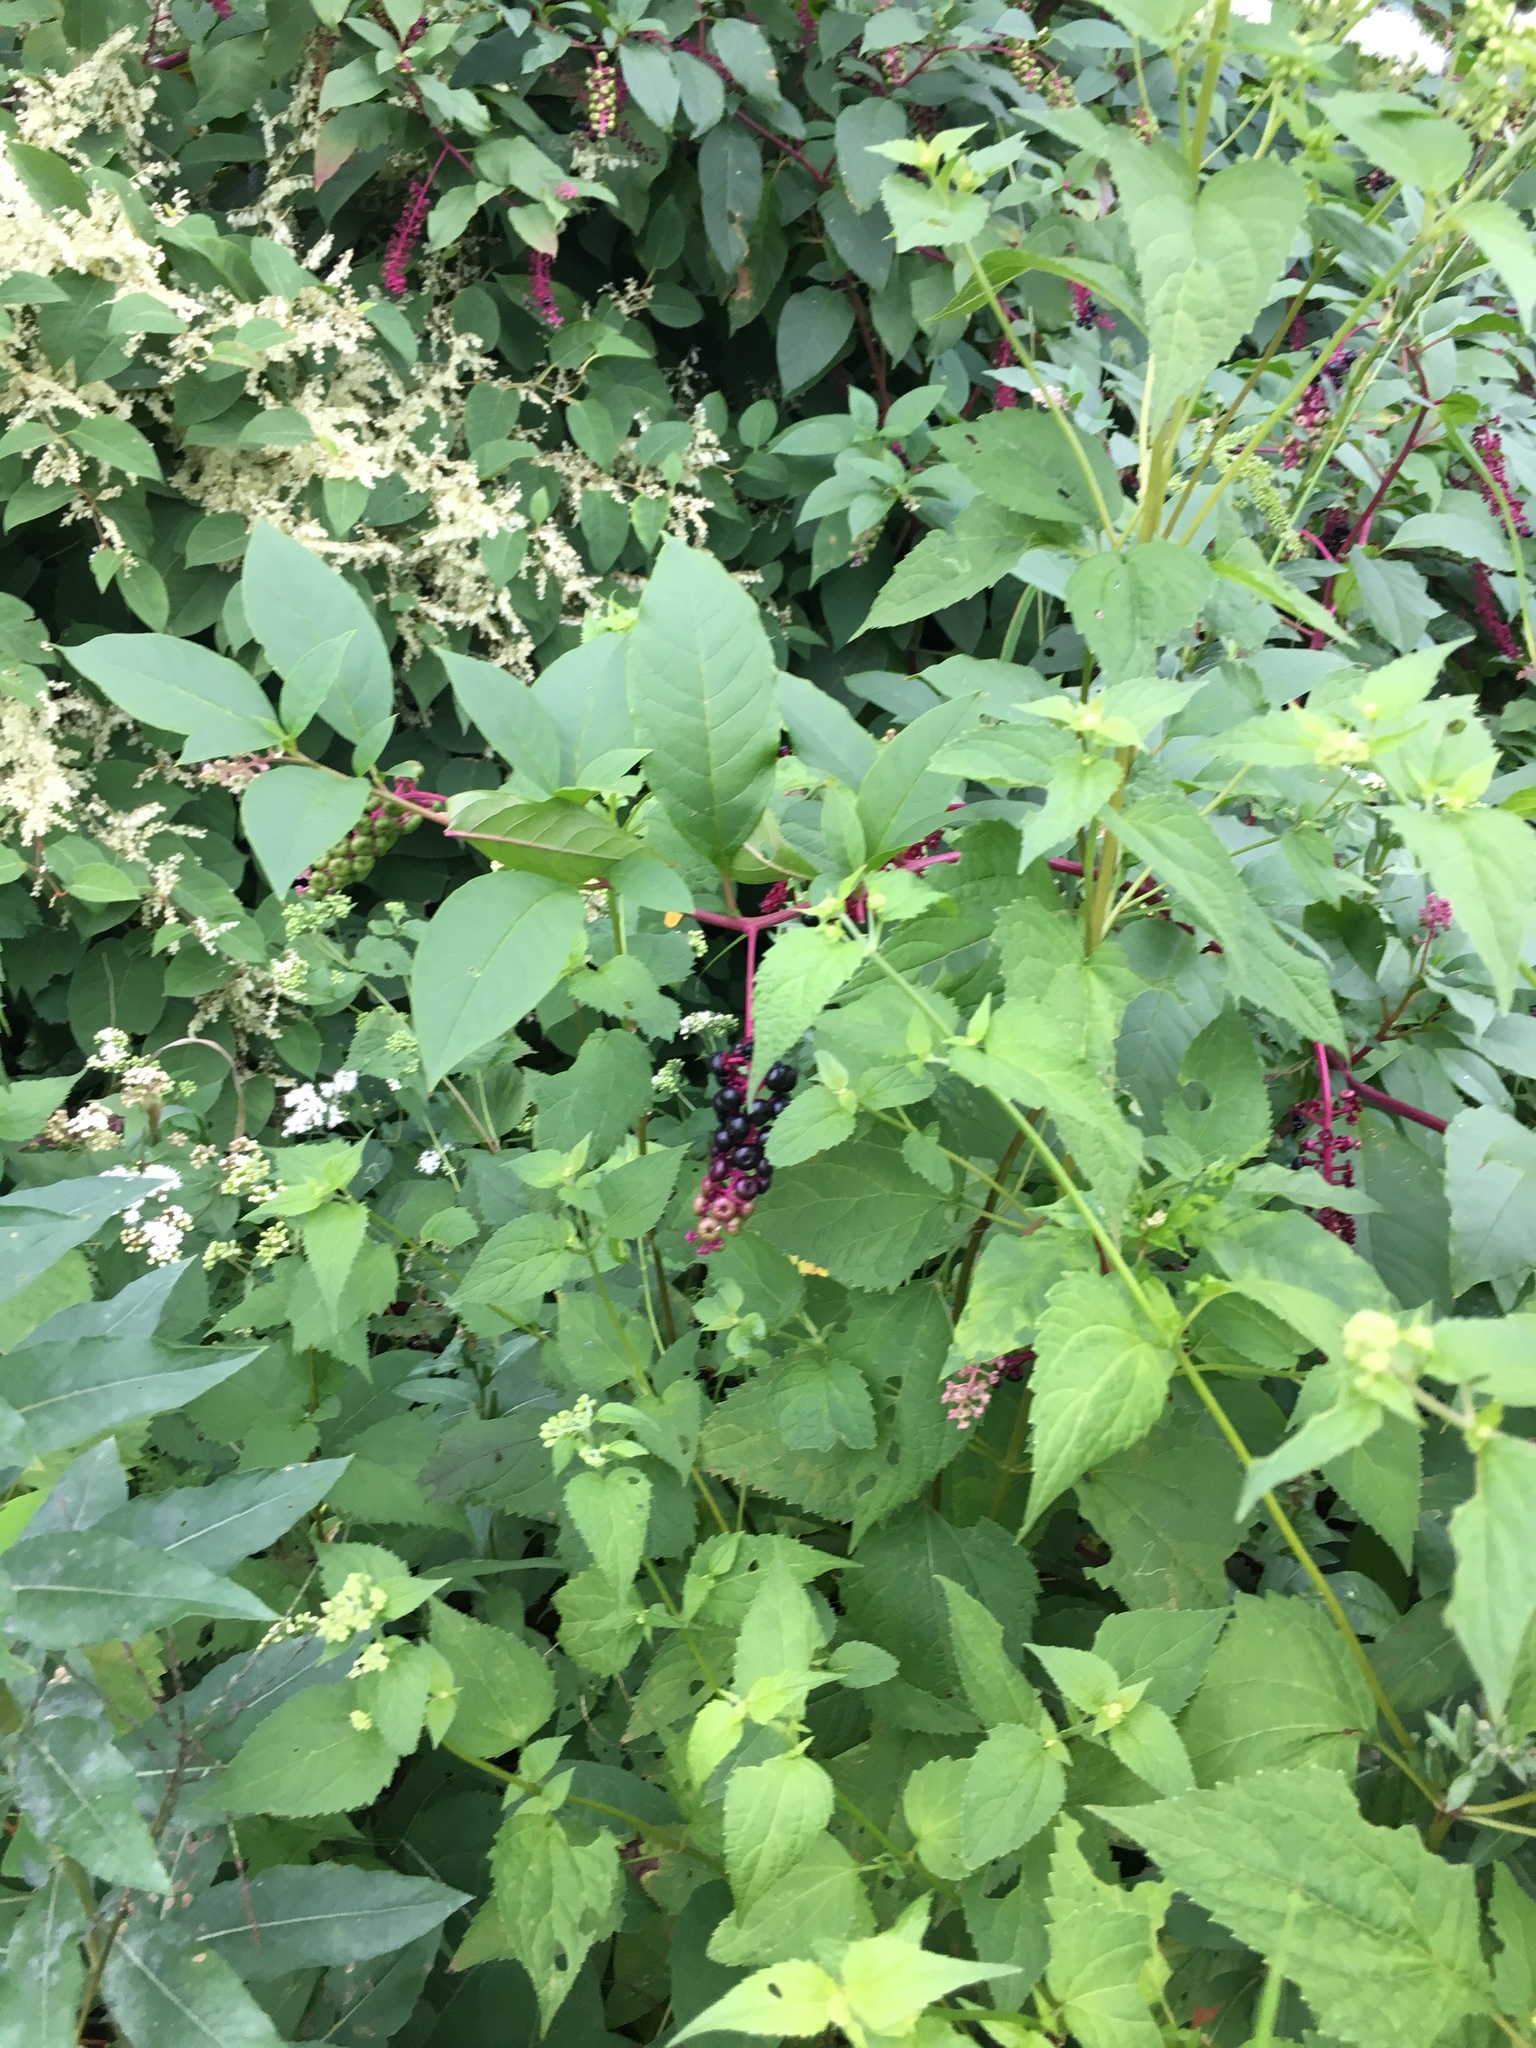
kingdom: Plantae
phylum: Tracheophyta
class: Magnoliopsida
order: Caryophyllales
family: Phytolaccaceae
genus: Phytolacca
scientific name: Phytolacca americana
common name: American pokeweed
